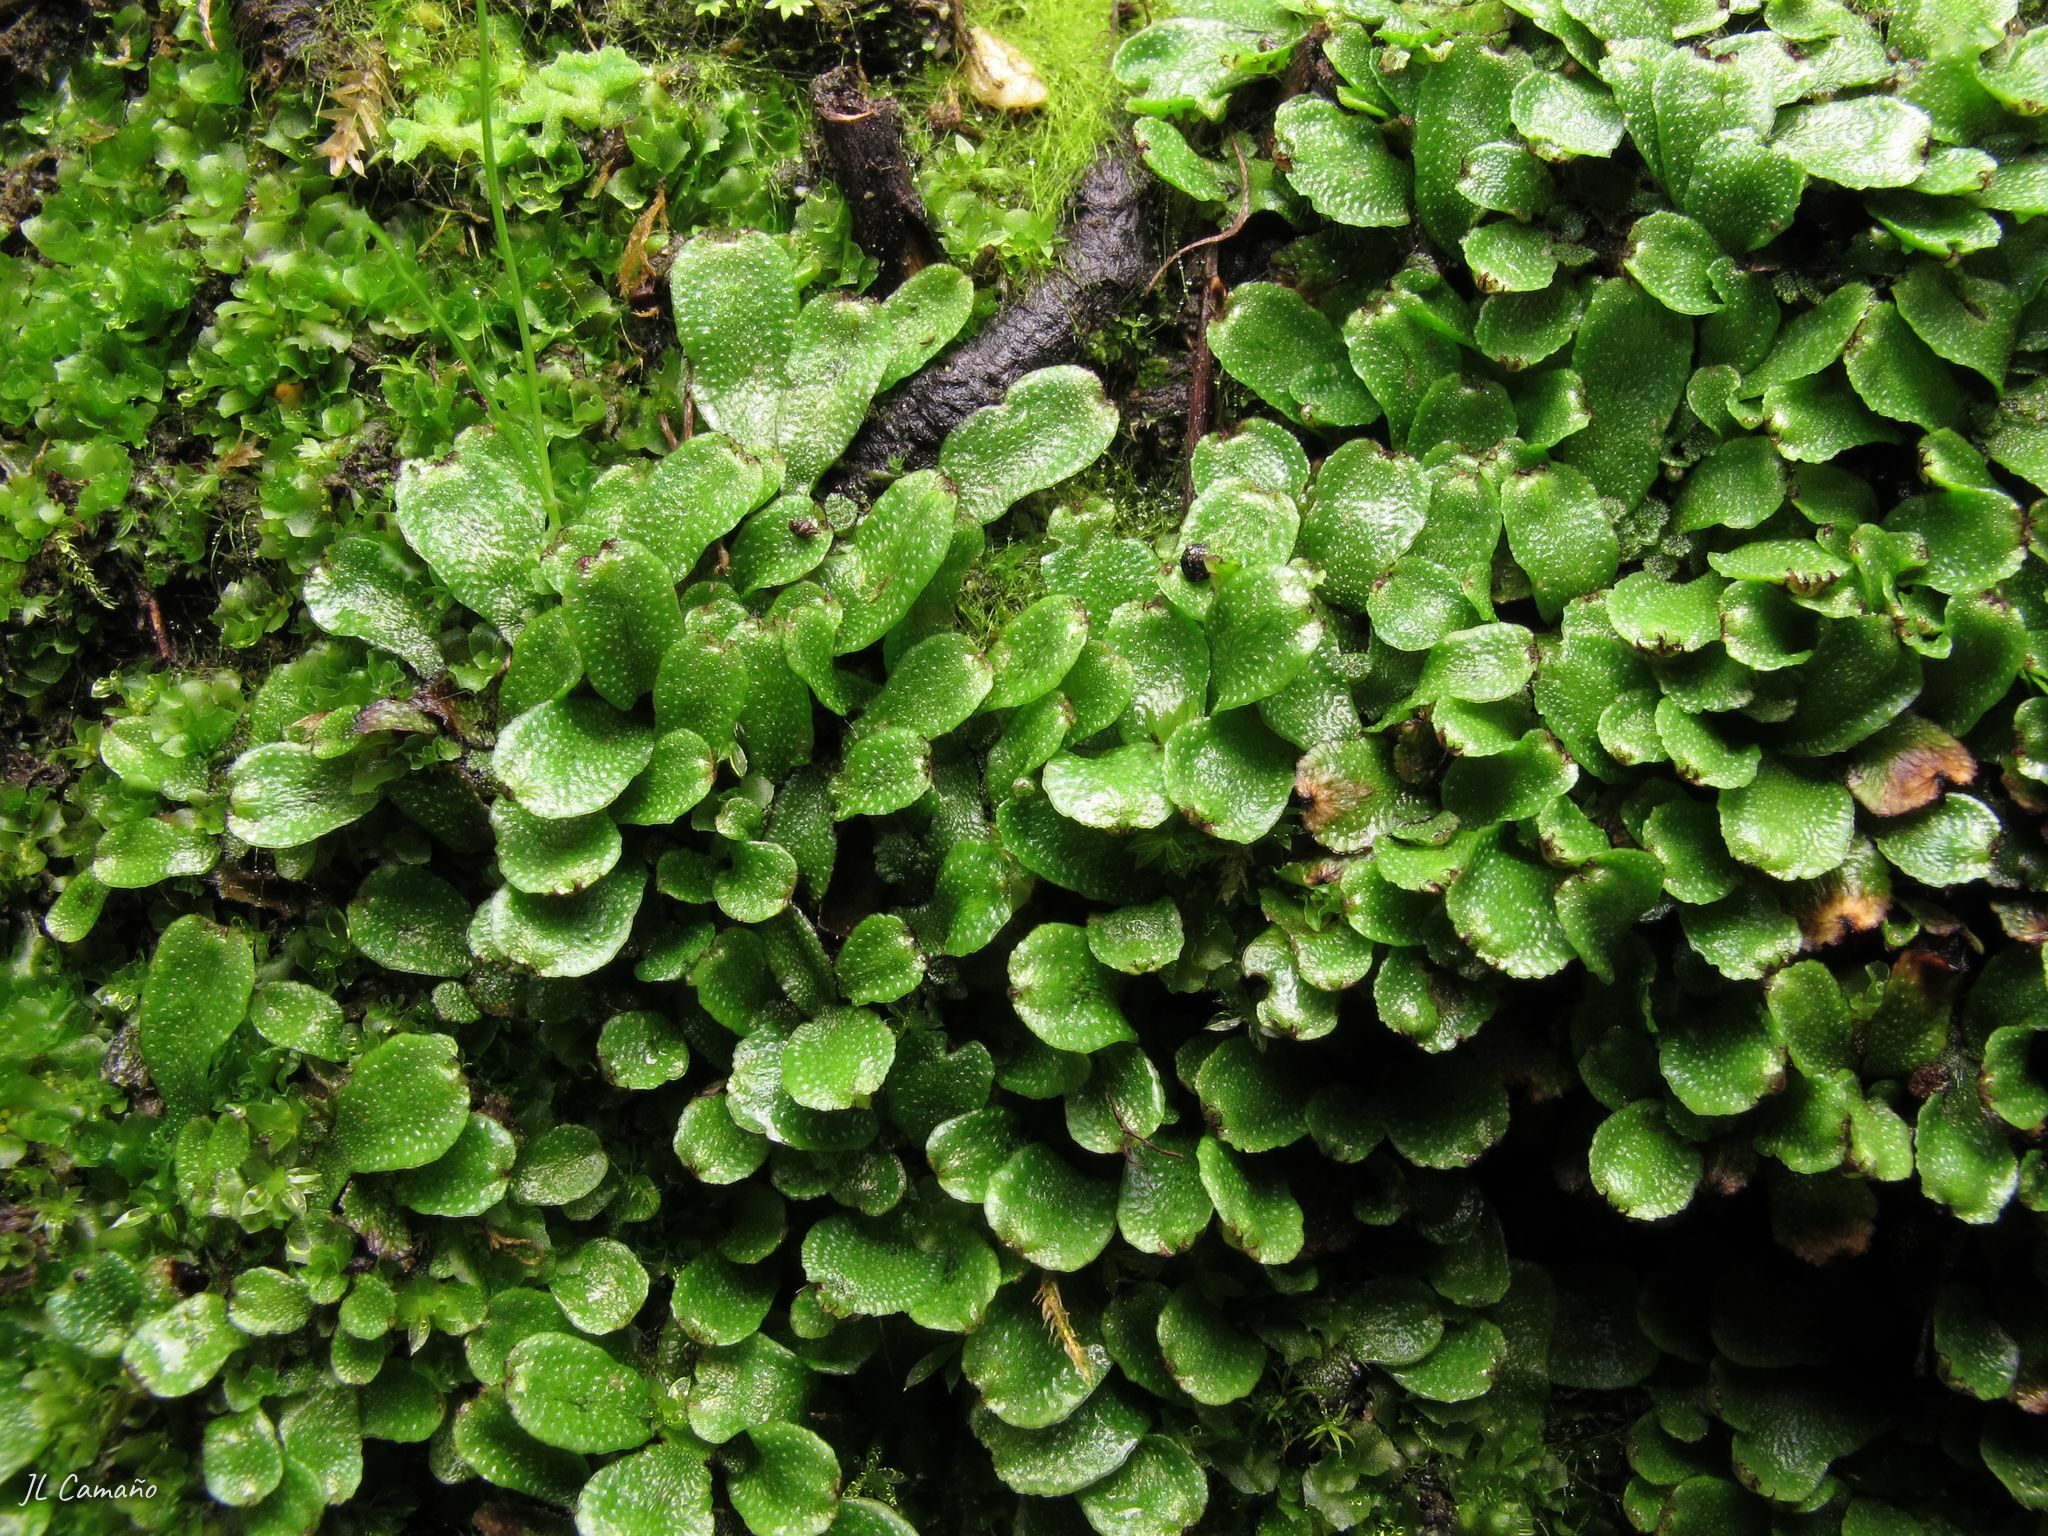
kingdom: Plantae
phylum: Marchantiophyta
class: Marchantiopsida
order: Marchantiales
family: Targioniaceae
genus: Targionia
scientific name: Targionia hypophylla
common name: Orobus-seed liverwort
